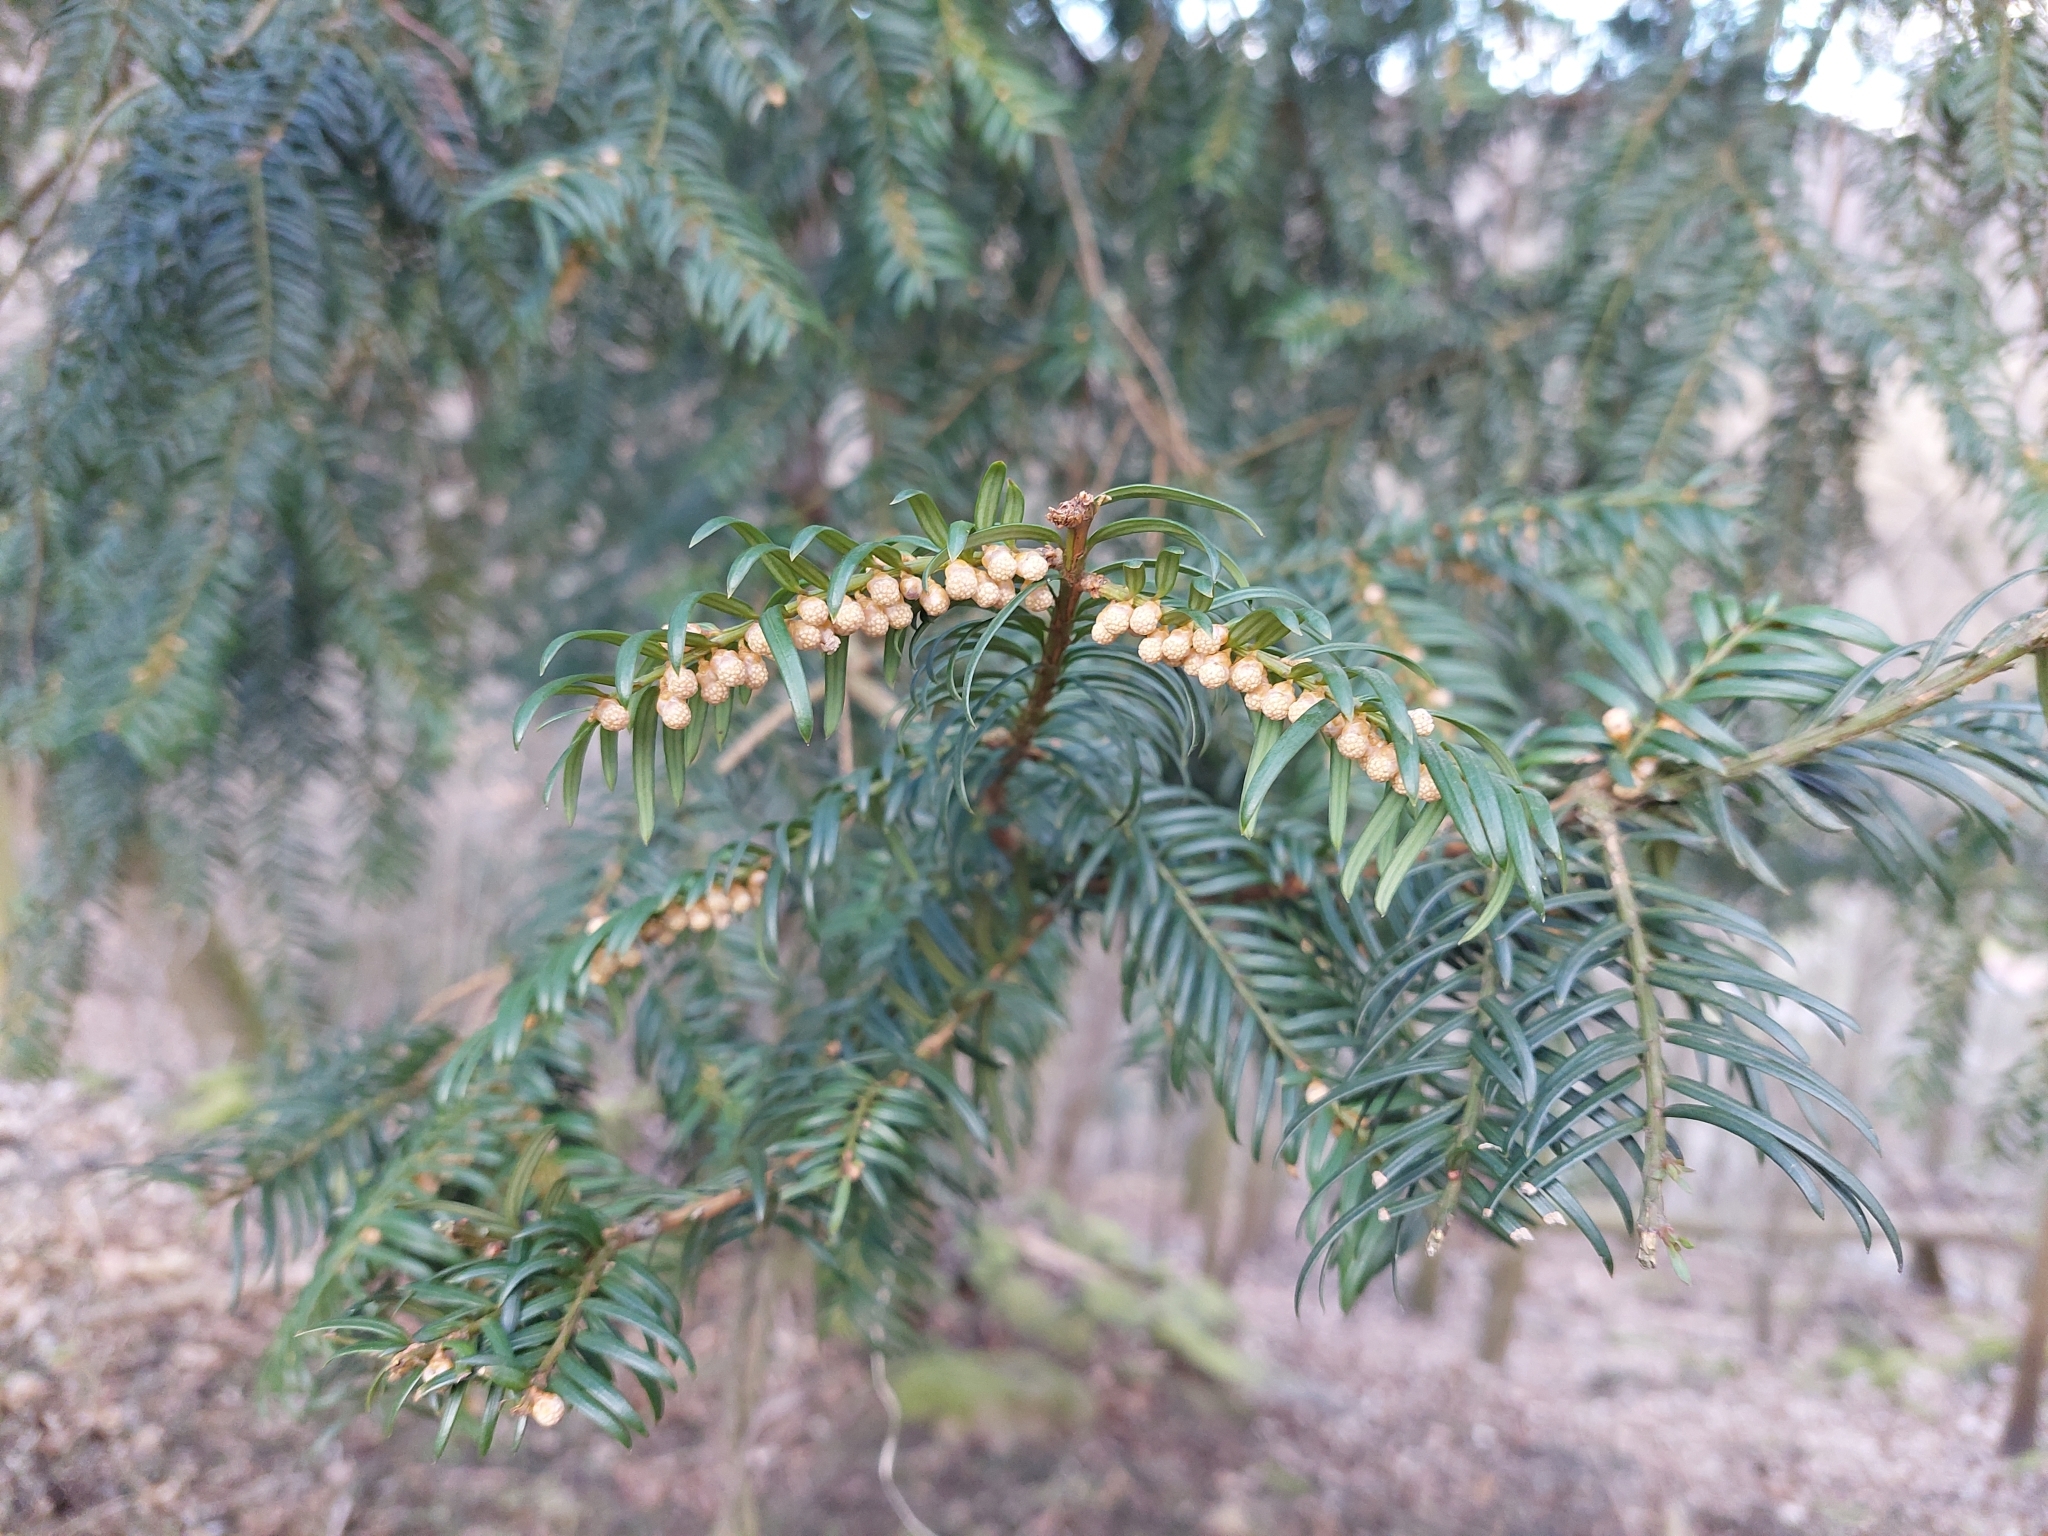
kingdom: Plantae
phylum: Tracheophyta
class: Pinopsida
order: Pinales
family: Taxaceae
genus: Taxus
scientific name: Taxus baccata
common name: Yew
